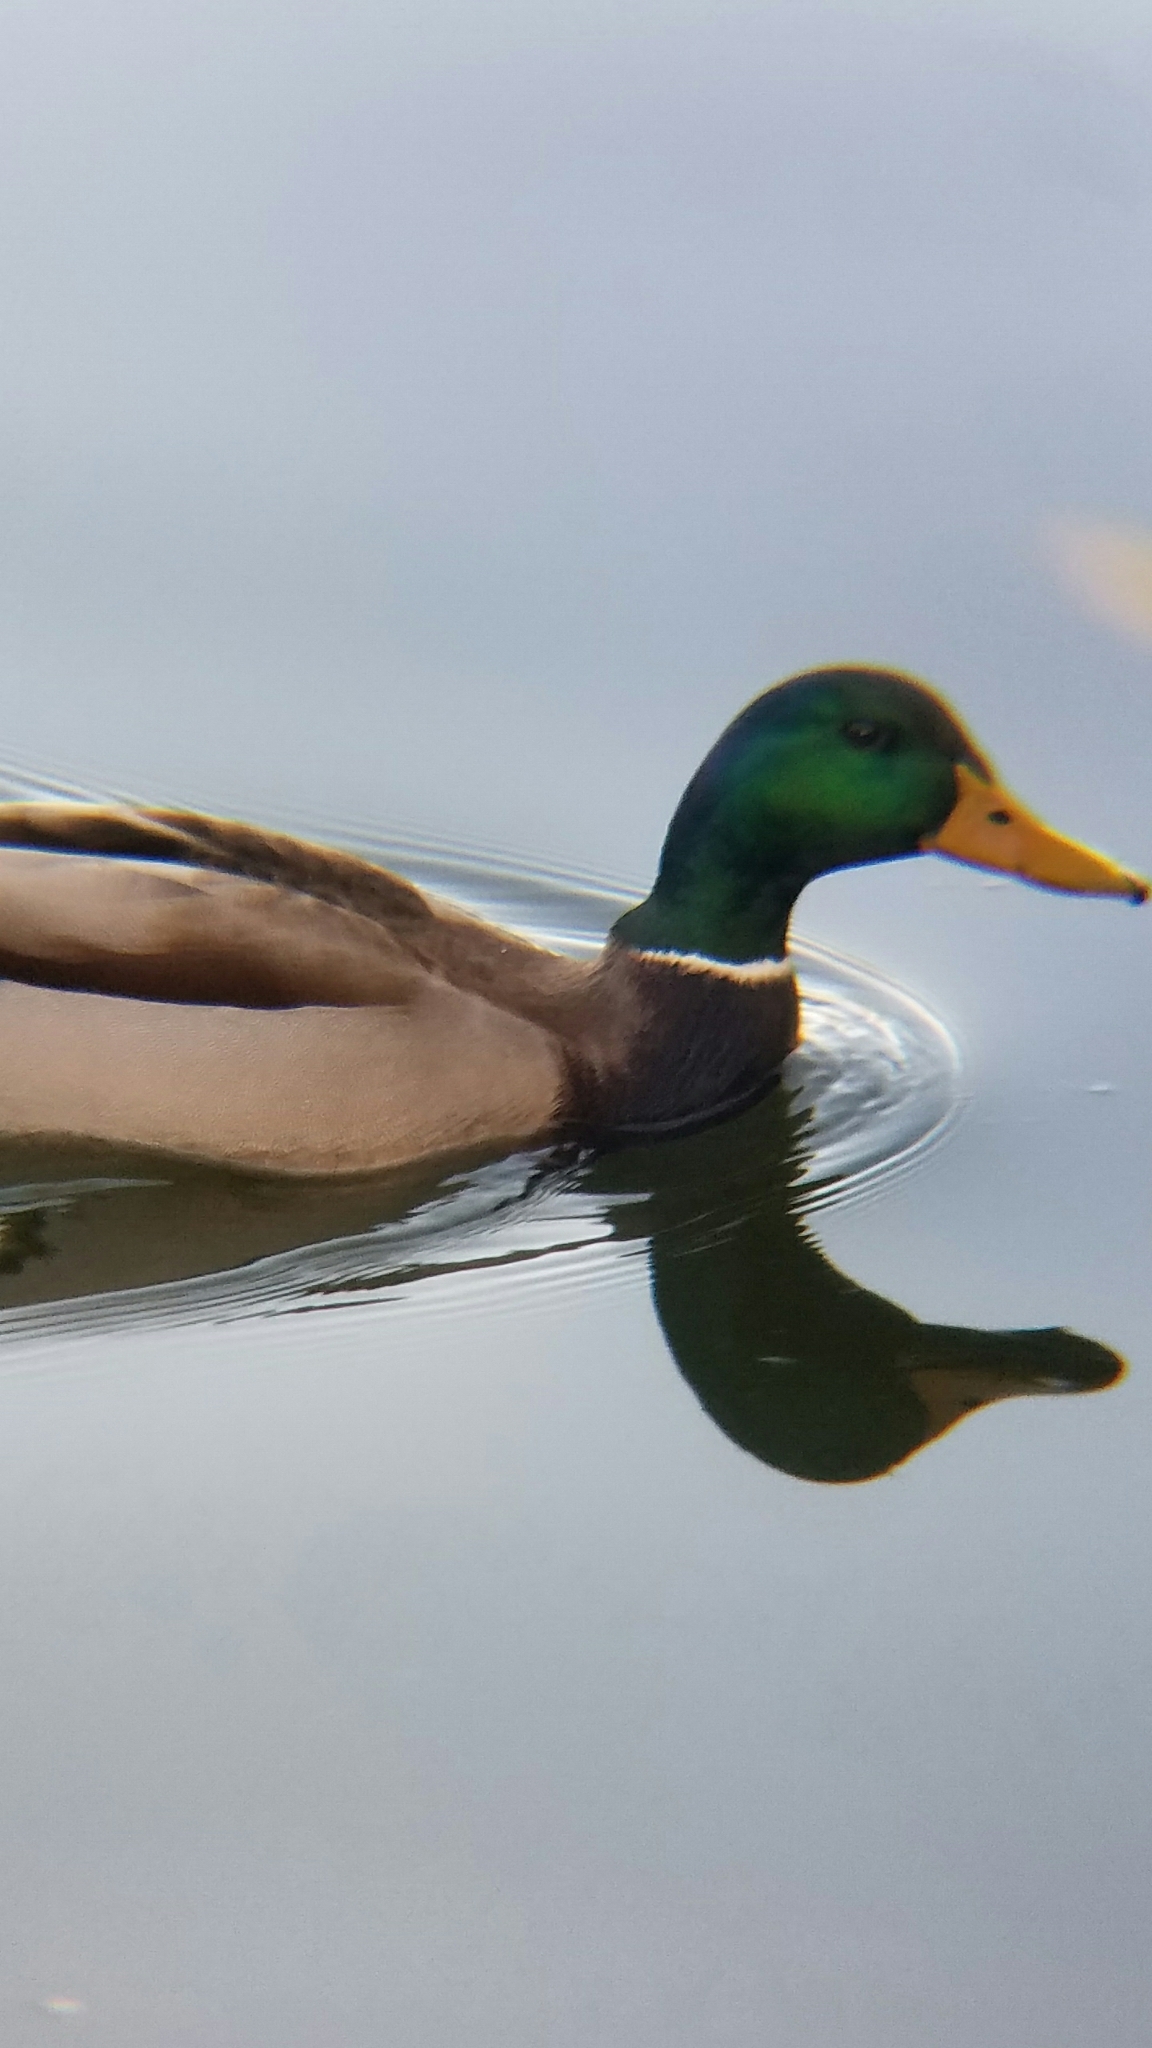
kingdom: Animalia
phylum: Chordata
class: Aves
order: Anseriformes
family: Anatidae
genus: Anas
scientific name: Anas platyrhynchos
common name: Mallard
